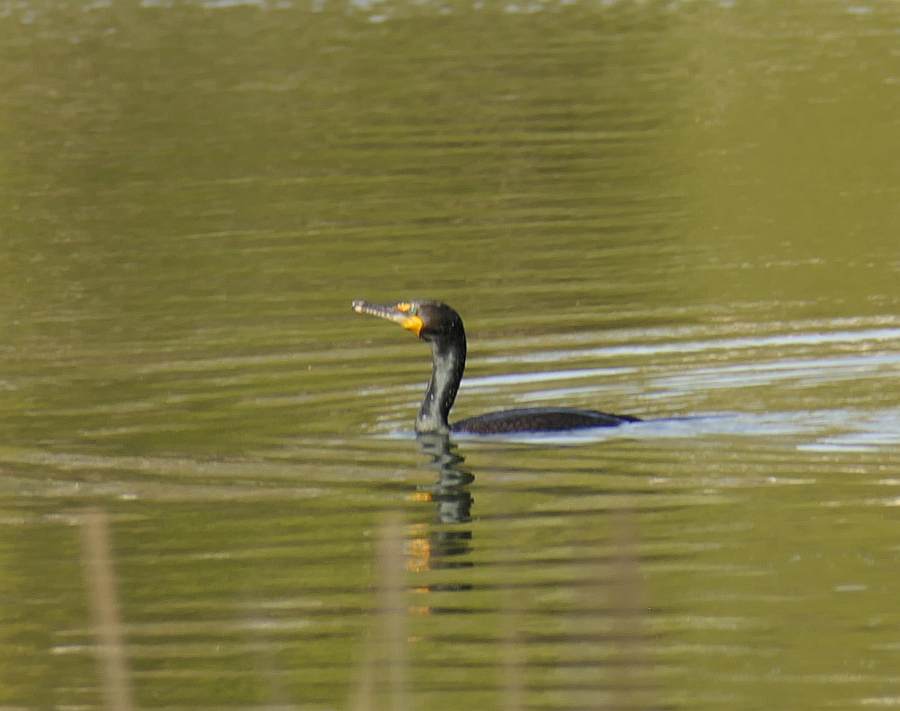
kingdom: Animalia
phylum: Chordata
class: Aves
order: Suliformes
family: Phalacrocoracidae
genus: Phalacrocorax
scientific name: Phalacrocorax auritus
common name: Double-crested cormorant
